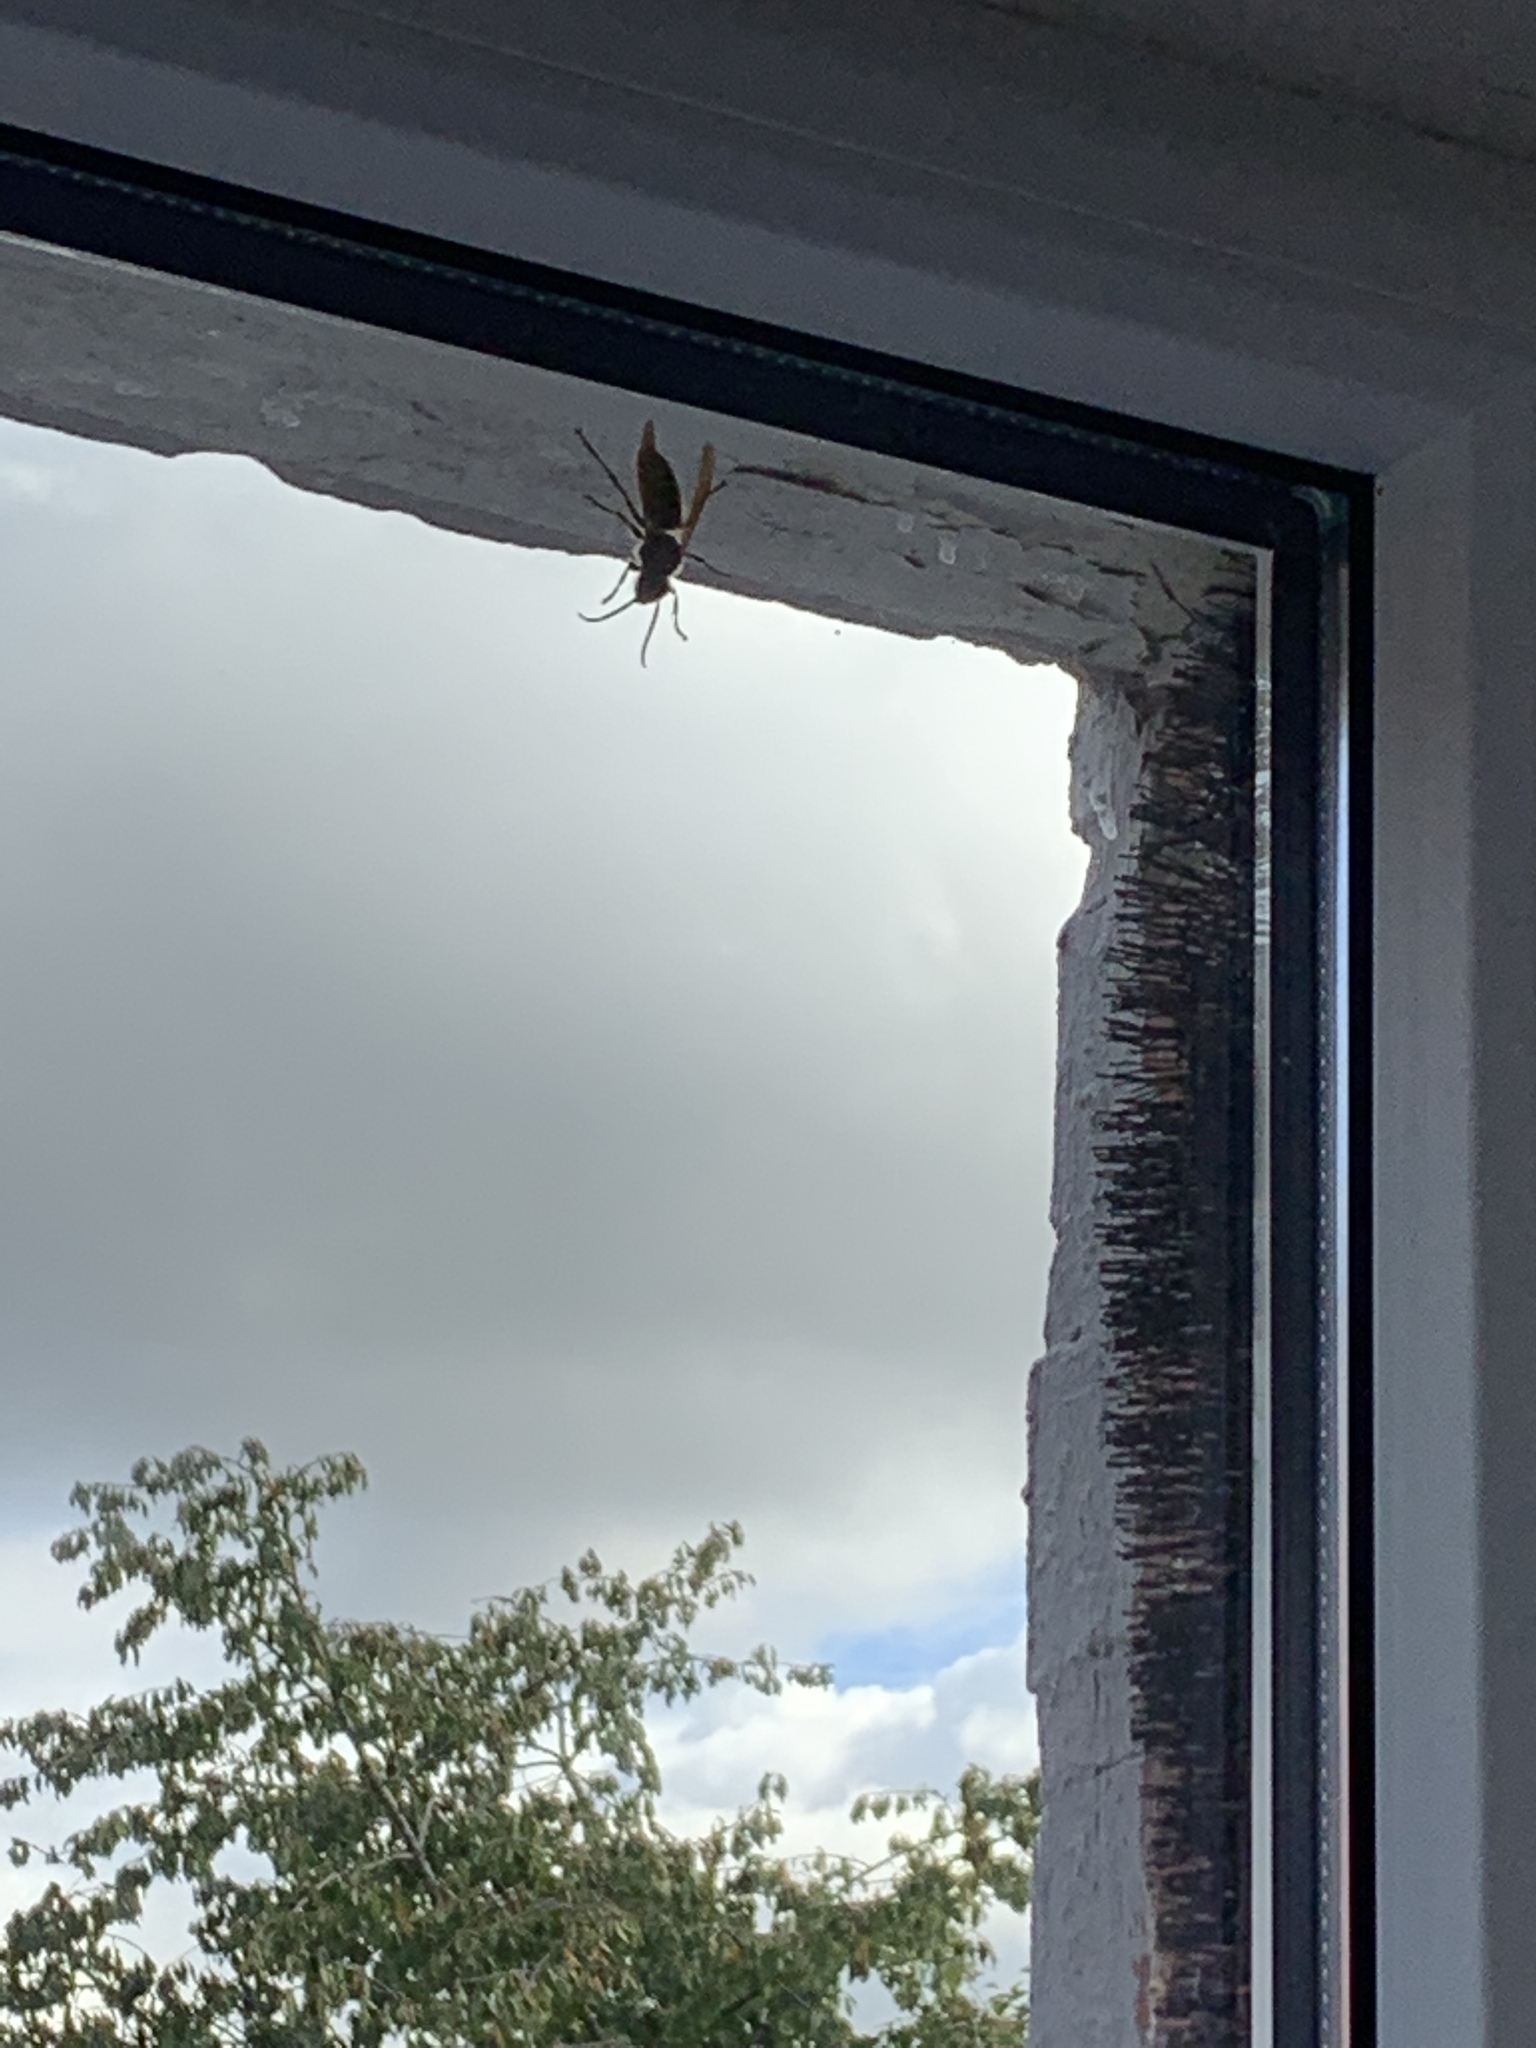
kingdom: Animalia
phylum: Arthropoda
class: Insecta
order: Hymenoptera
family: Vespidae
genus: Vespa
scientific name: Vespa crabro
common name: Hornet
